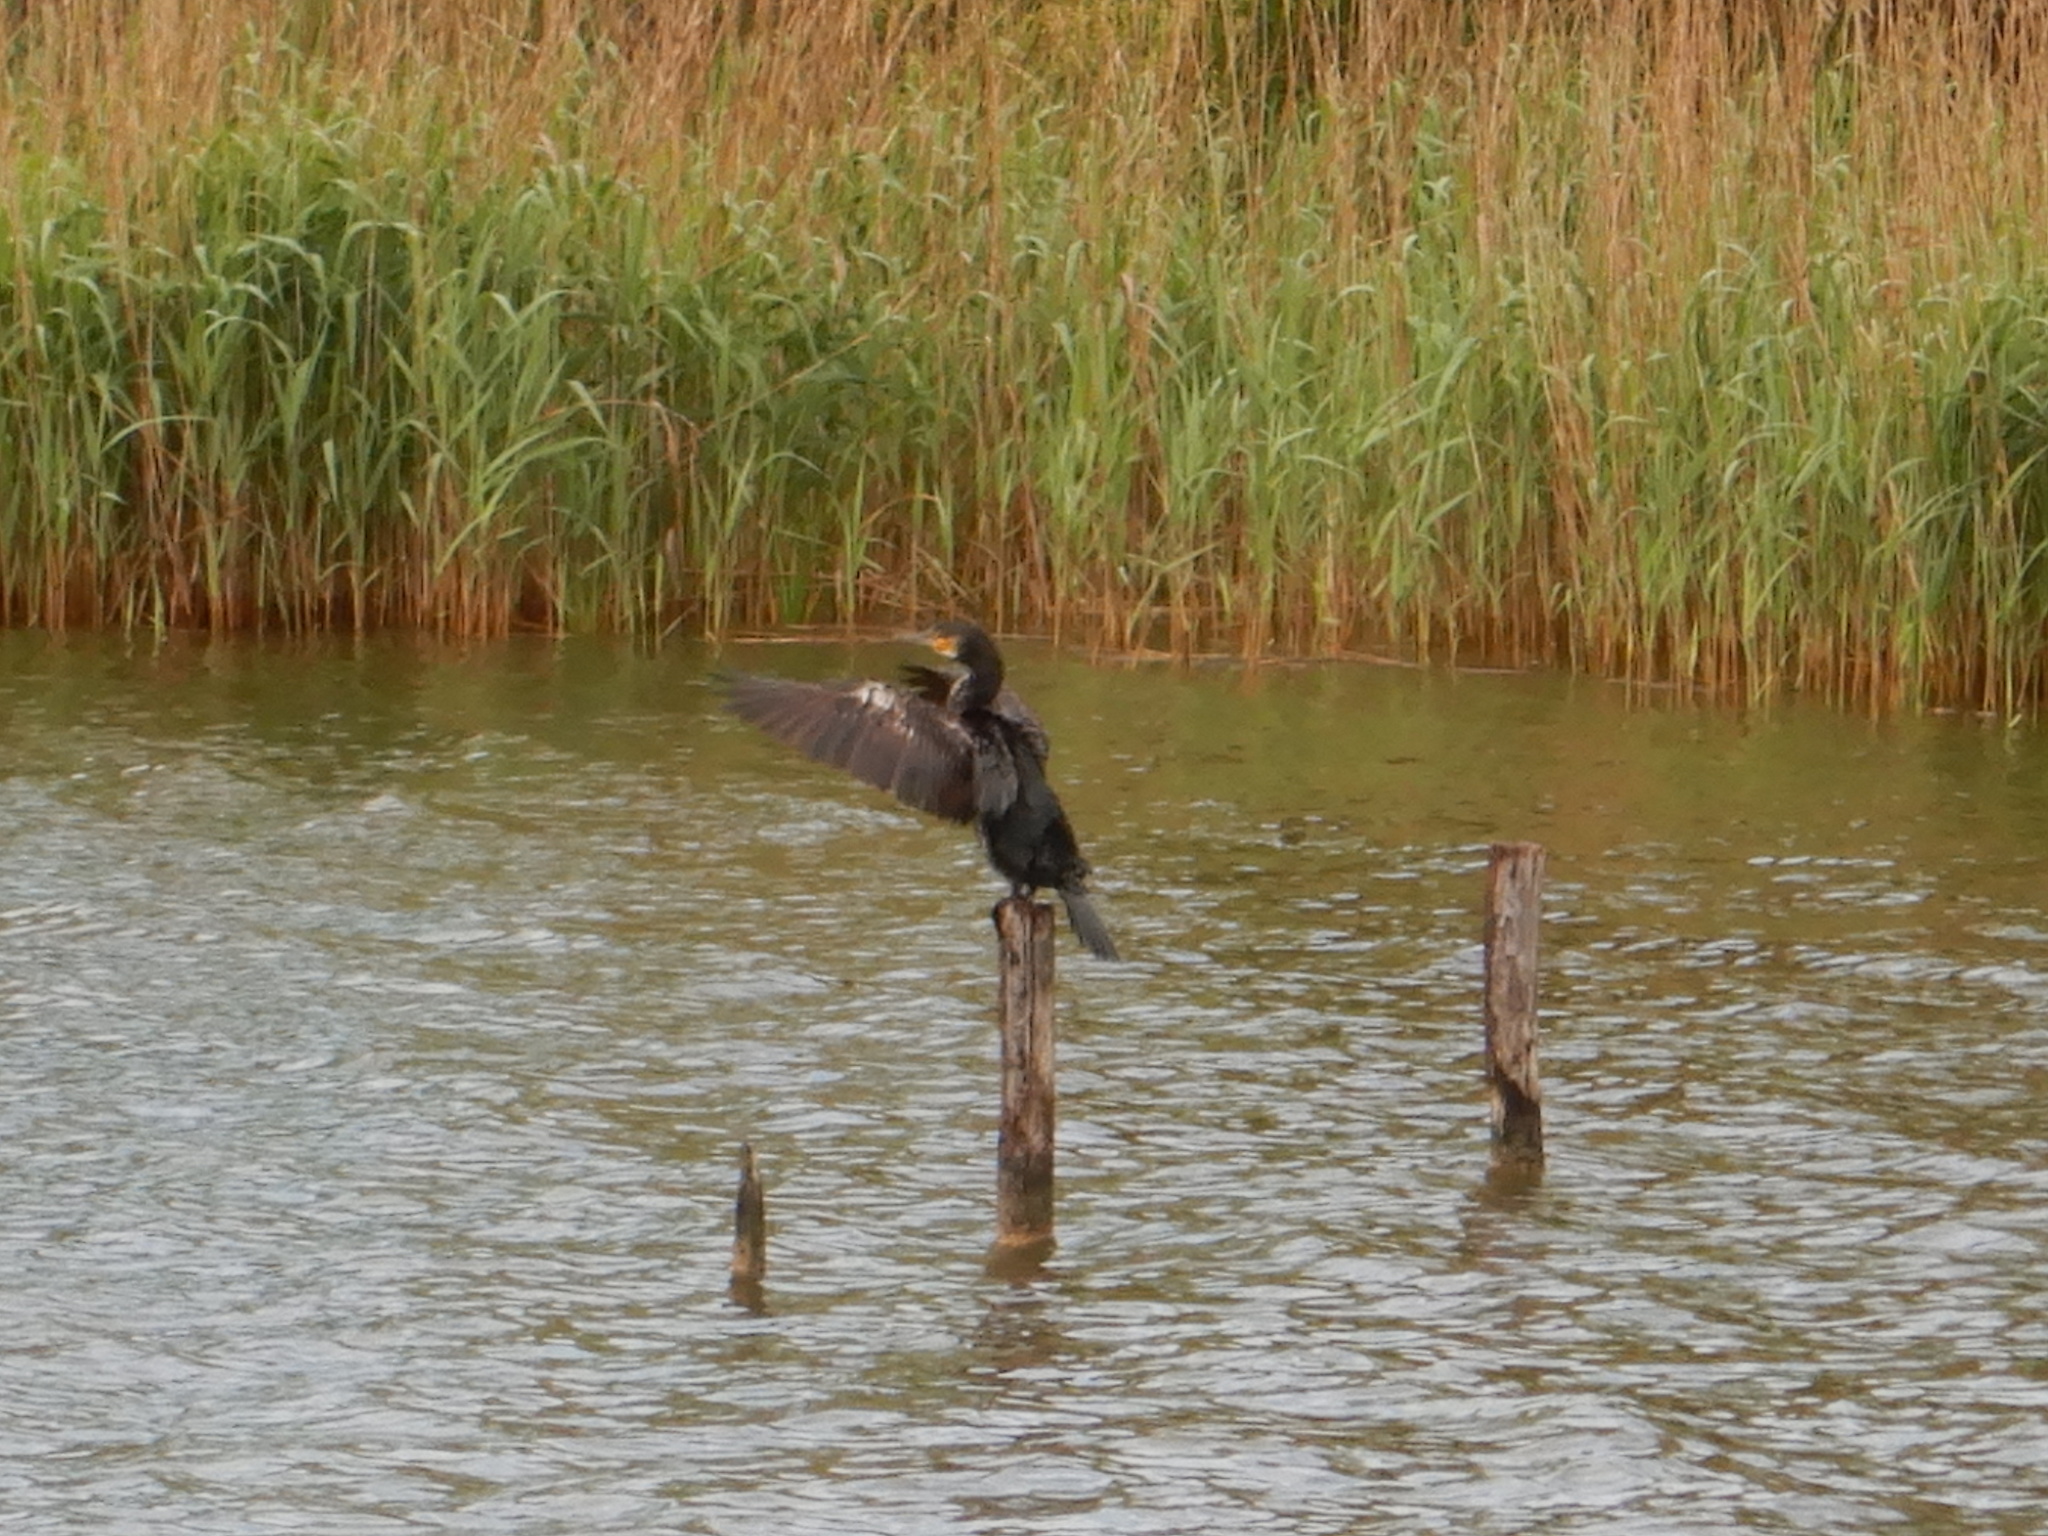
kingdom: Animalia
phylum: Chordata
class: Aves
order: Suliformes
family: Phalacrocoracidae
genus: Phalacrocorax
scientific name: Phalacrocorax carbo
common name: Great cormorant
